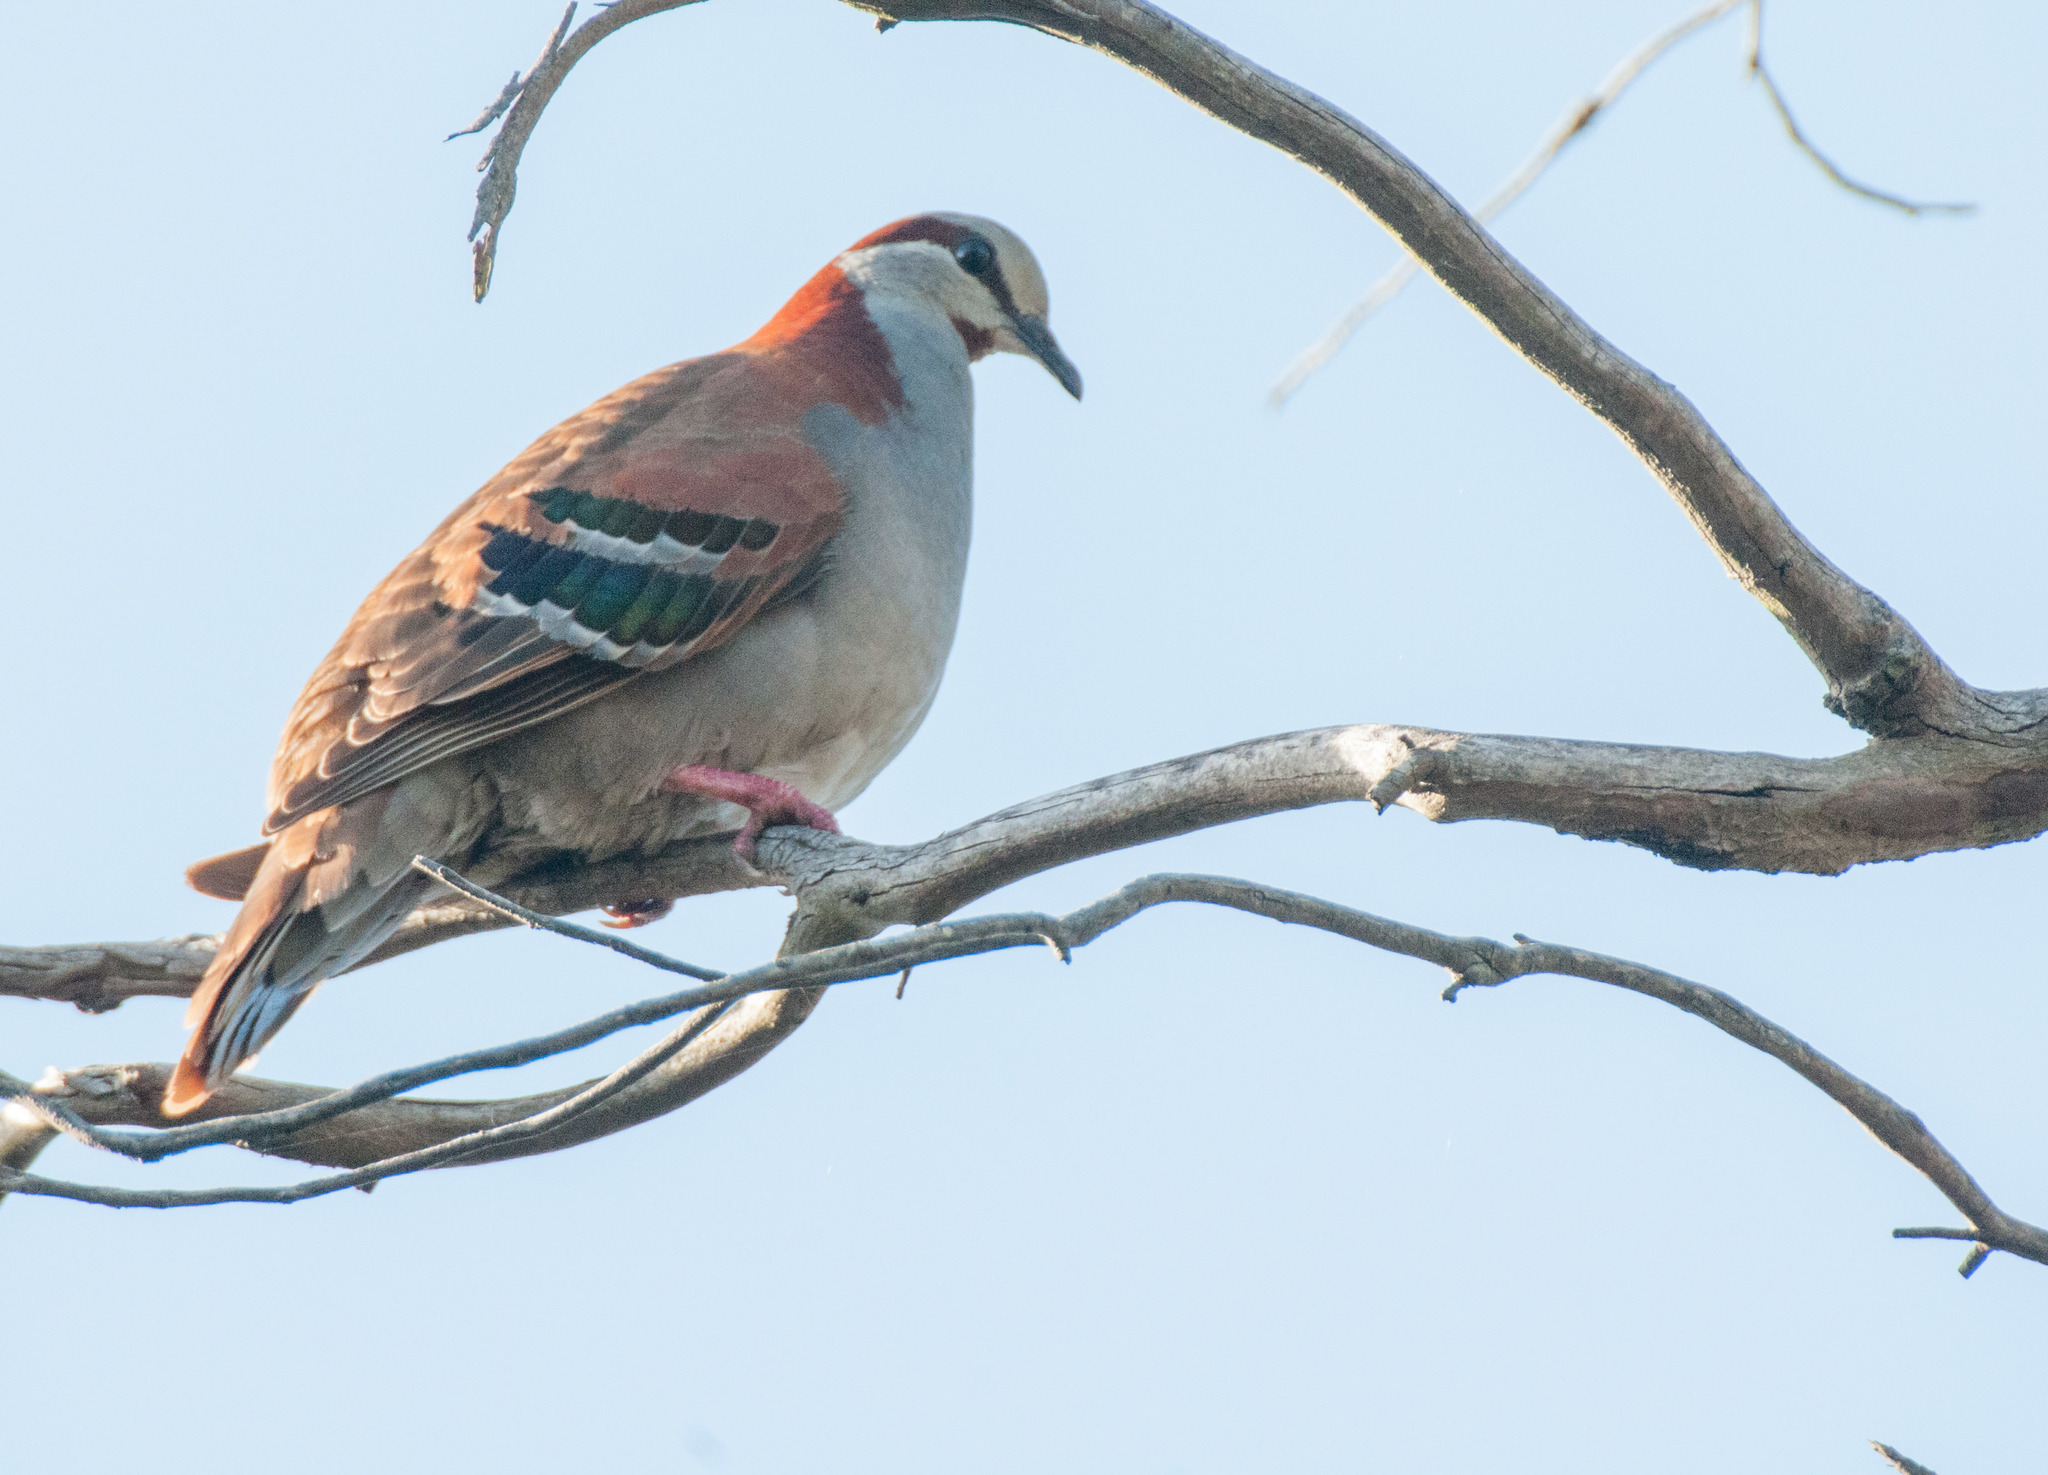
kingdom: Animalia
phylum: Chordata
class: Aves
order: Columbiformes
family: Columbidae
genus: Phaps
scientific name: Phaps elegans
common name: Brush bronzewing
